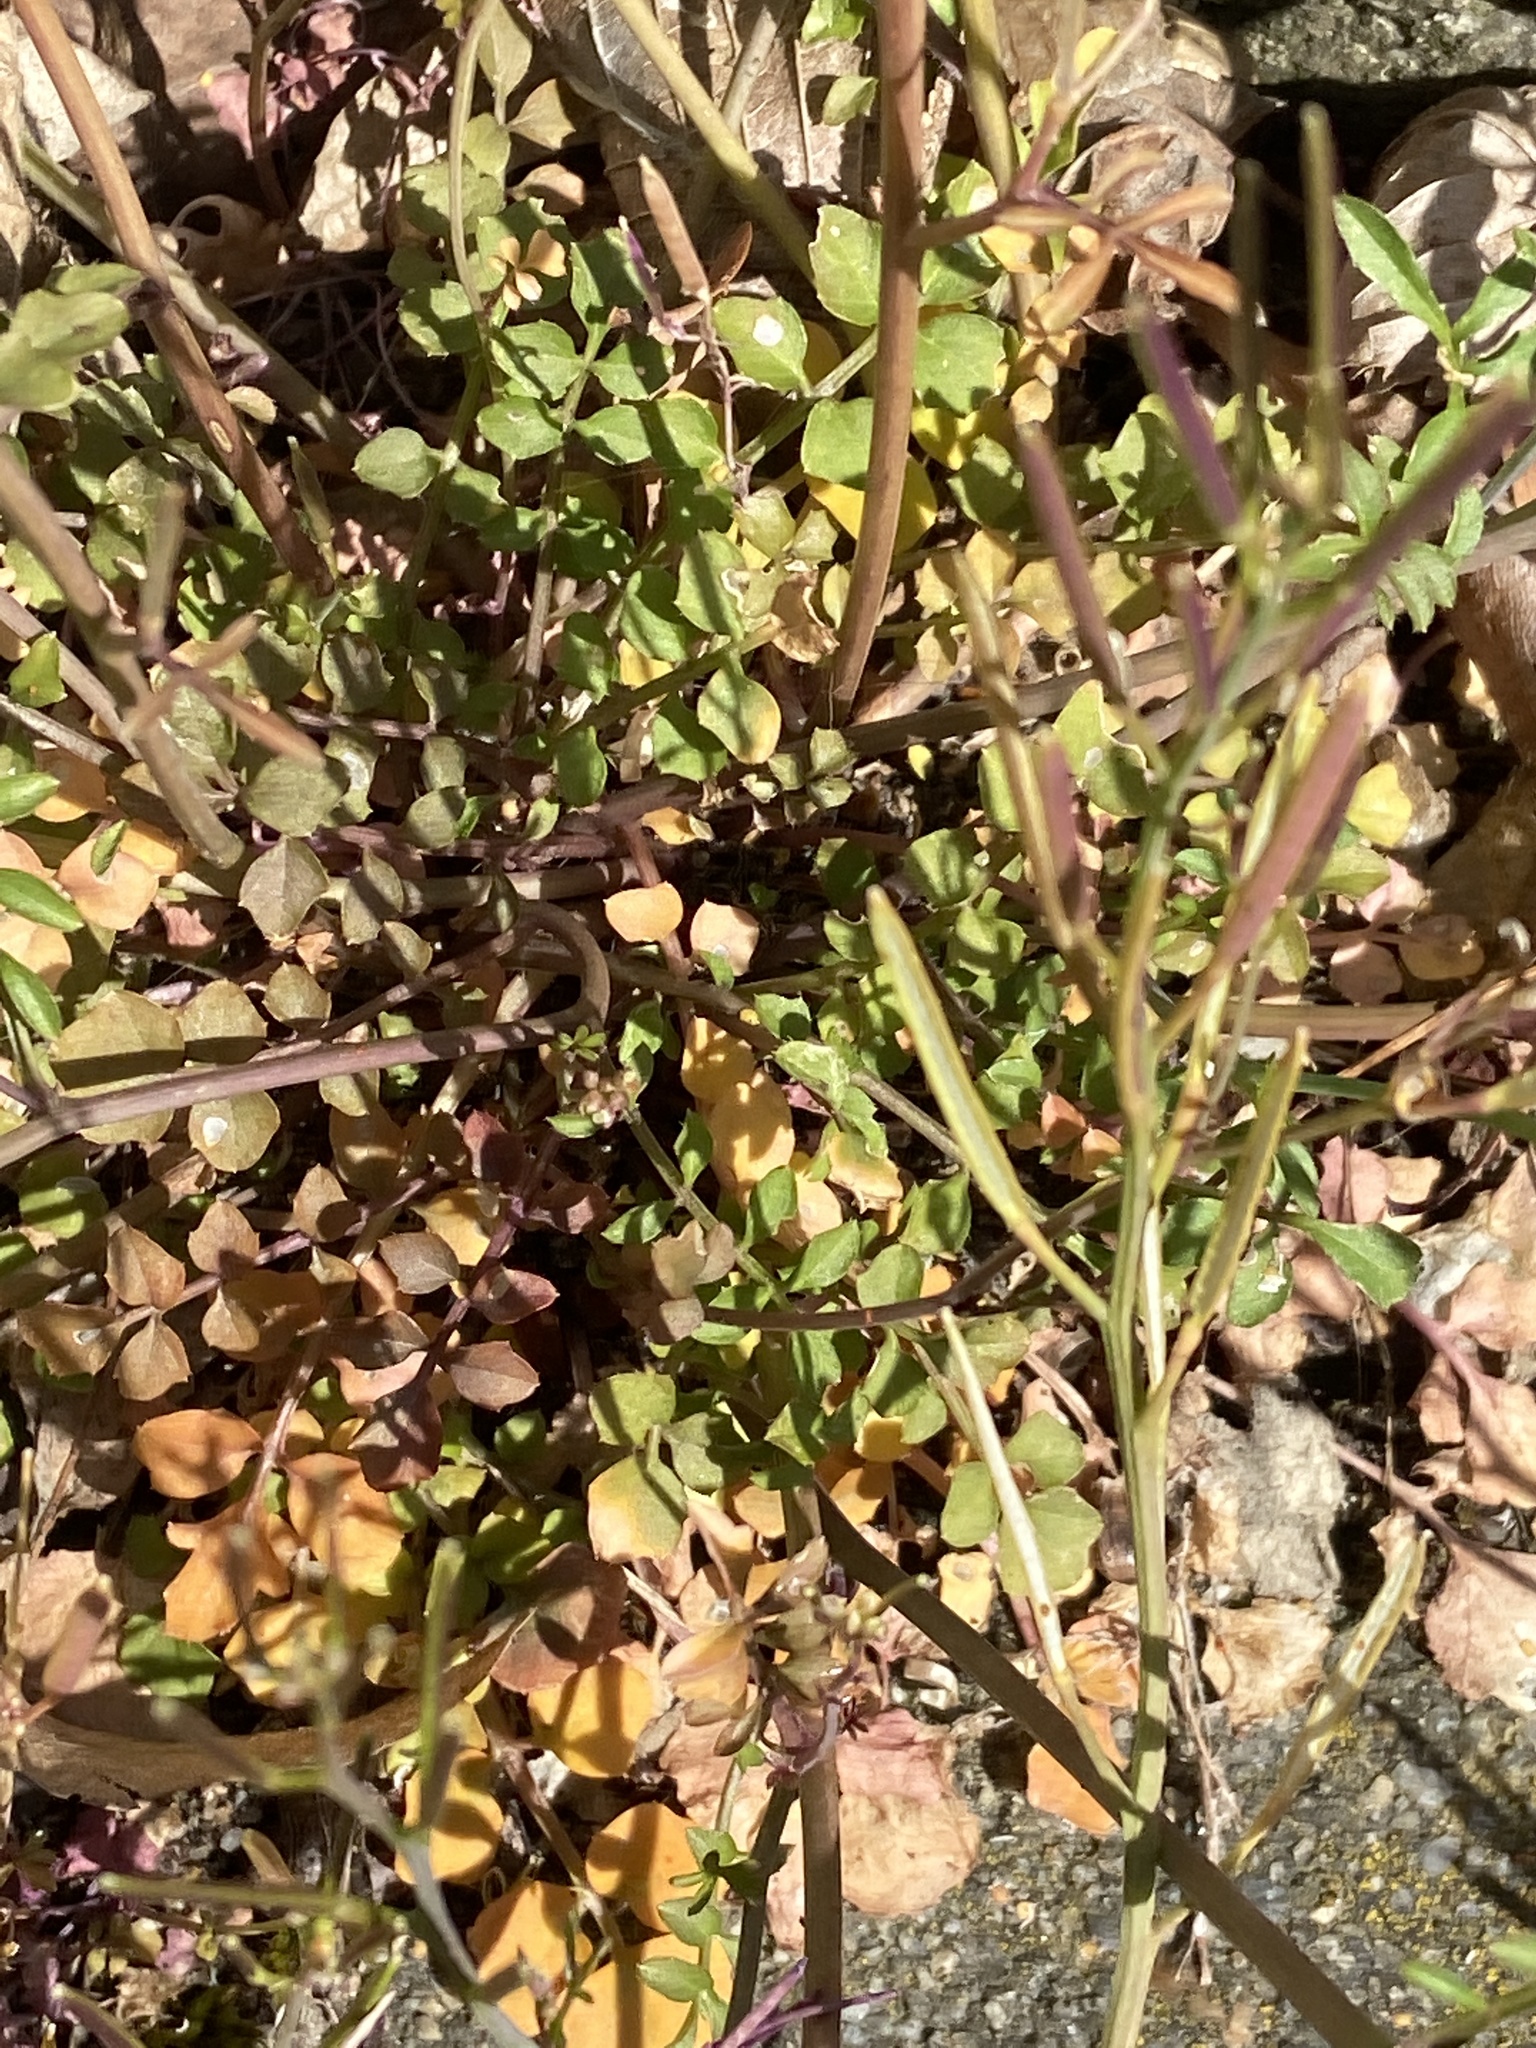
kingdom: Plantae
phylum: Tracheophyta
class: Magnoliopsida
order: Brassicales
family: Brassicaceae
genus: Cardamine
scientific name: Cardamine hirsuta
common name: Hairy bittercress
